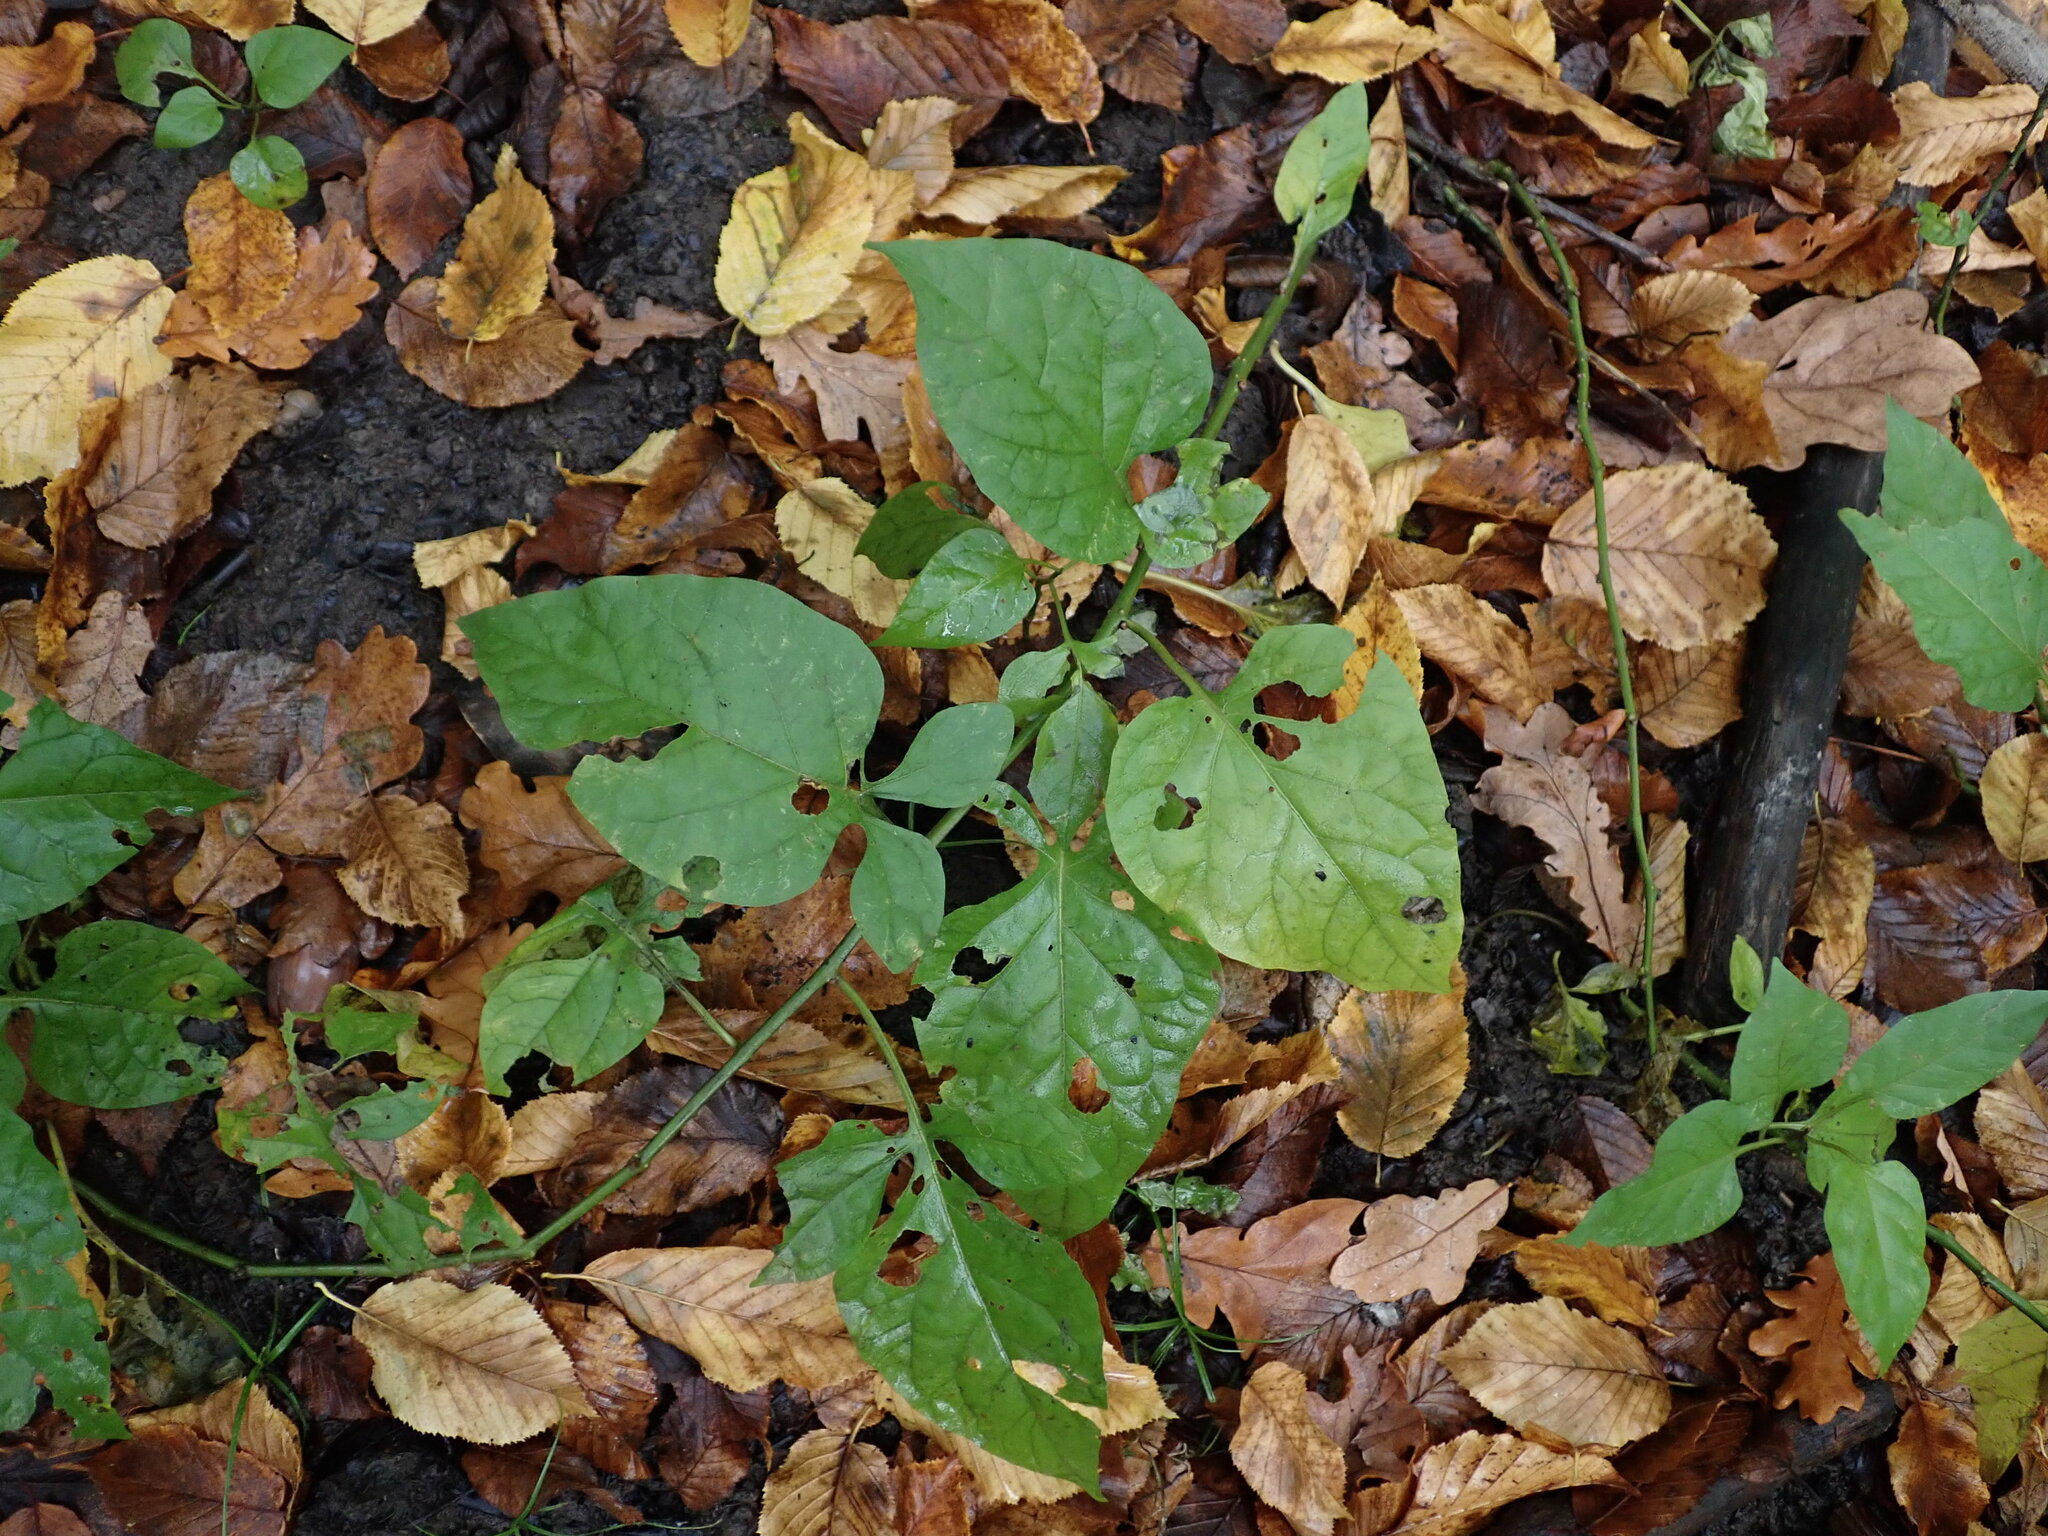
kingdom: Plantae
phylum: Tracheophyta
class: Magnoliopsida
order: Solanales
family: Solanaceae
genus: Solanum
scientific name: Solanum dulcamara
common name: Climbing nightshade
